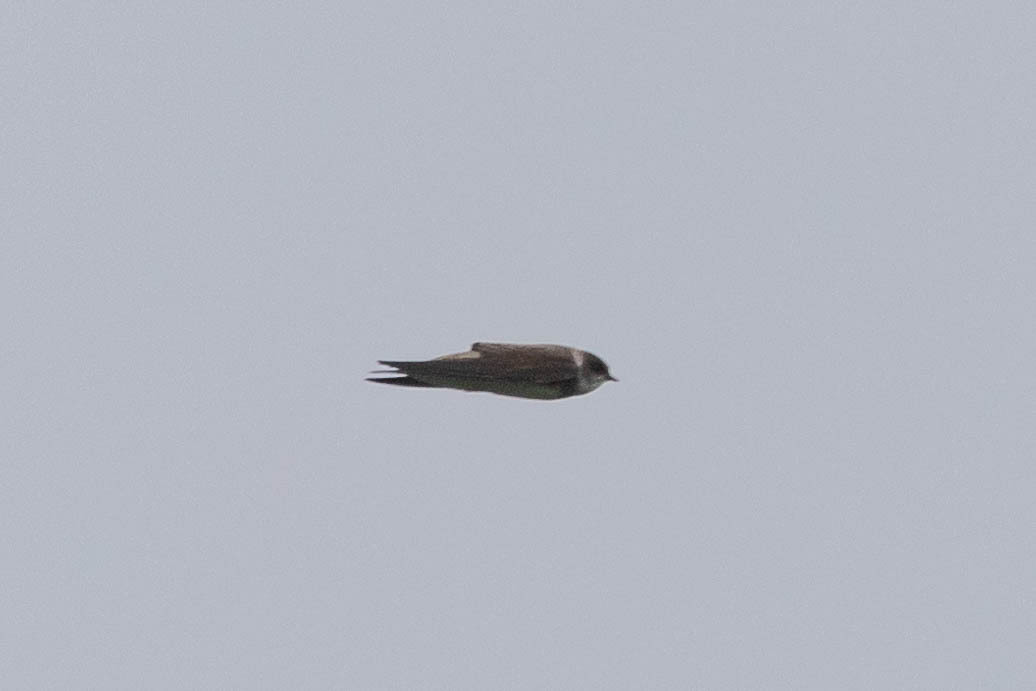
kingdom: Animalia
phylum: Chordata
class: Aves
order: Passeriformes
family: Hirundinidae
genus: Riparia
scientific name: Riparia riparia
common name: Sand martin
